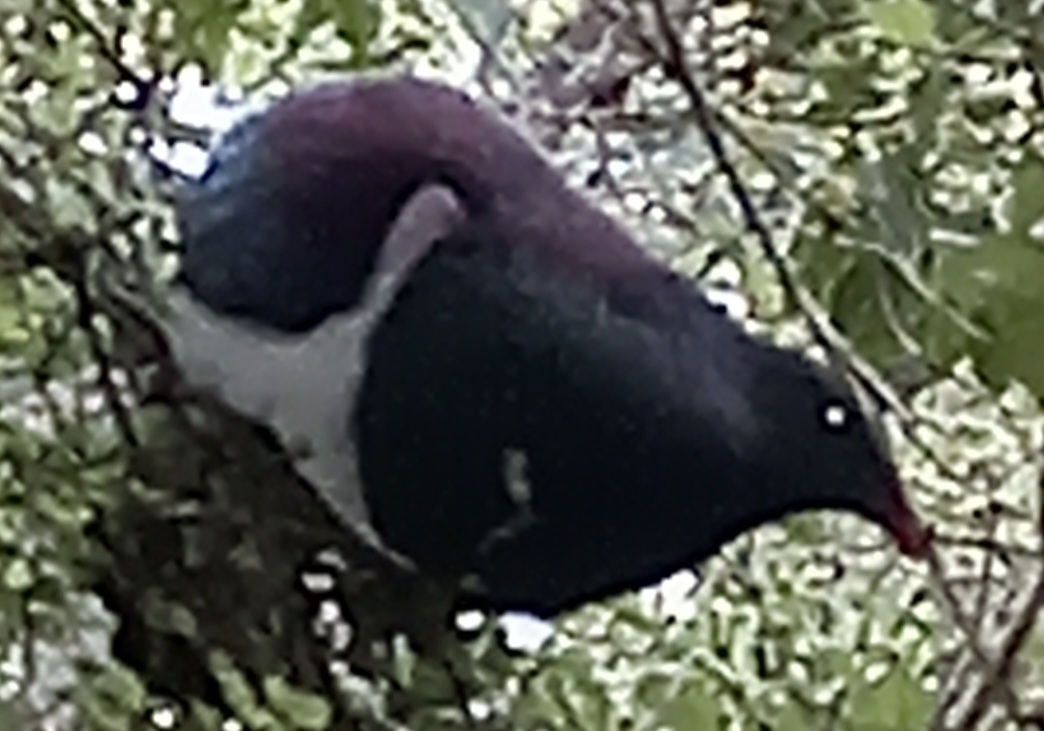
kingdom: Animalia
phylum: Chordata
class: Aves
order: Columbiformes
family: Columbidae
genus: Hemiphaga
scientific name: Hemiphaga novaeseelandiae
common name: New zealand pigeon
